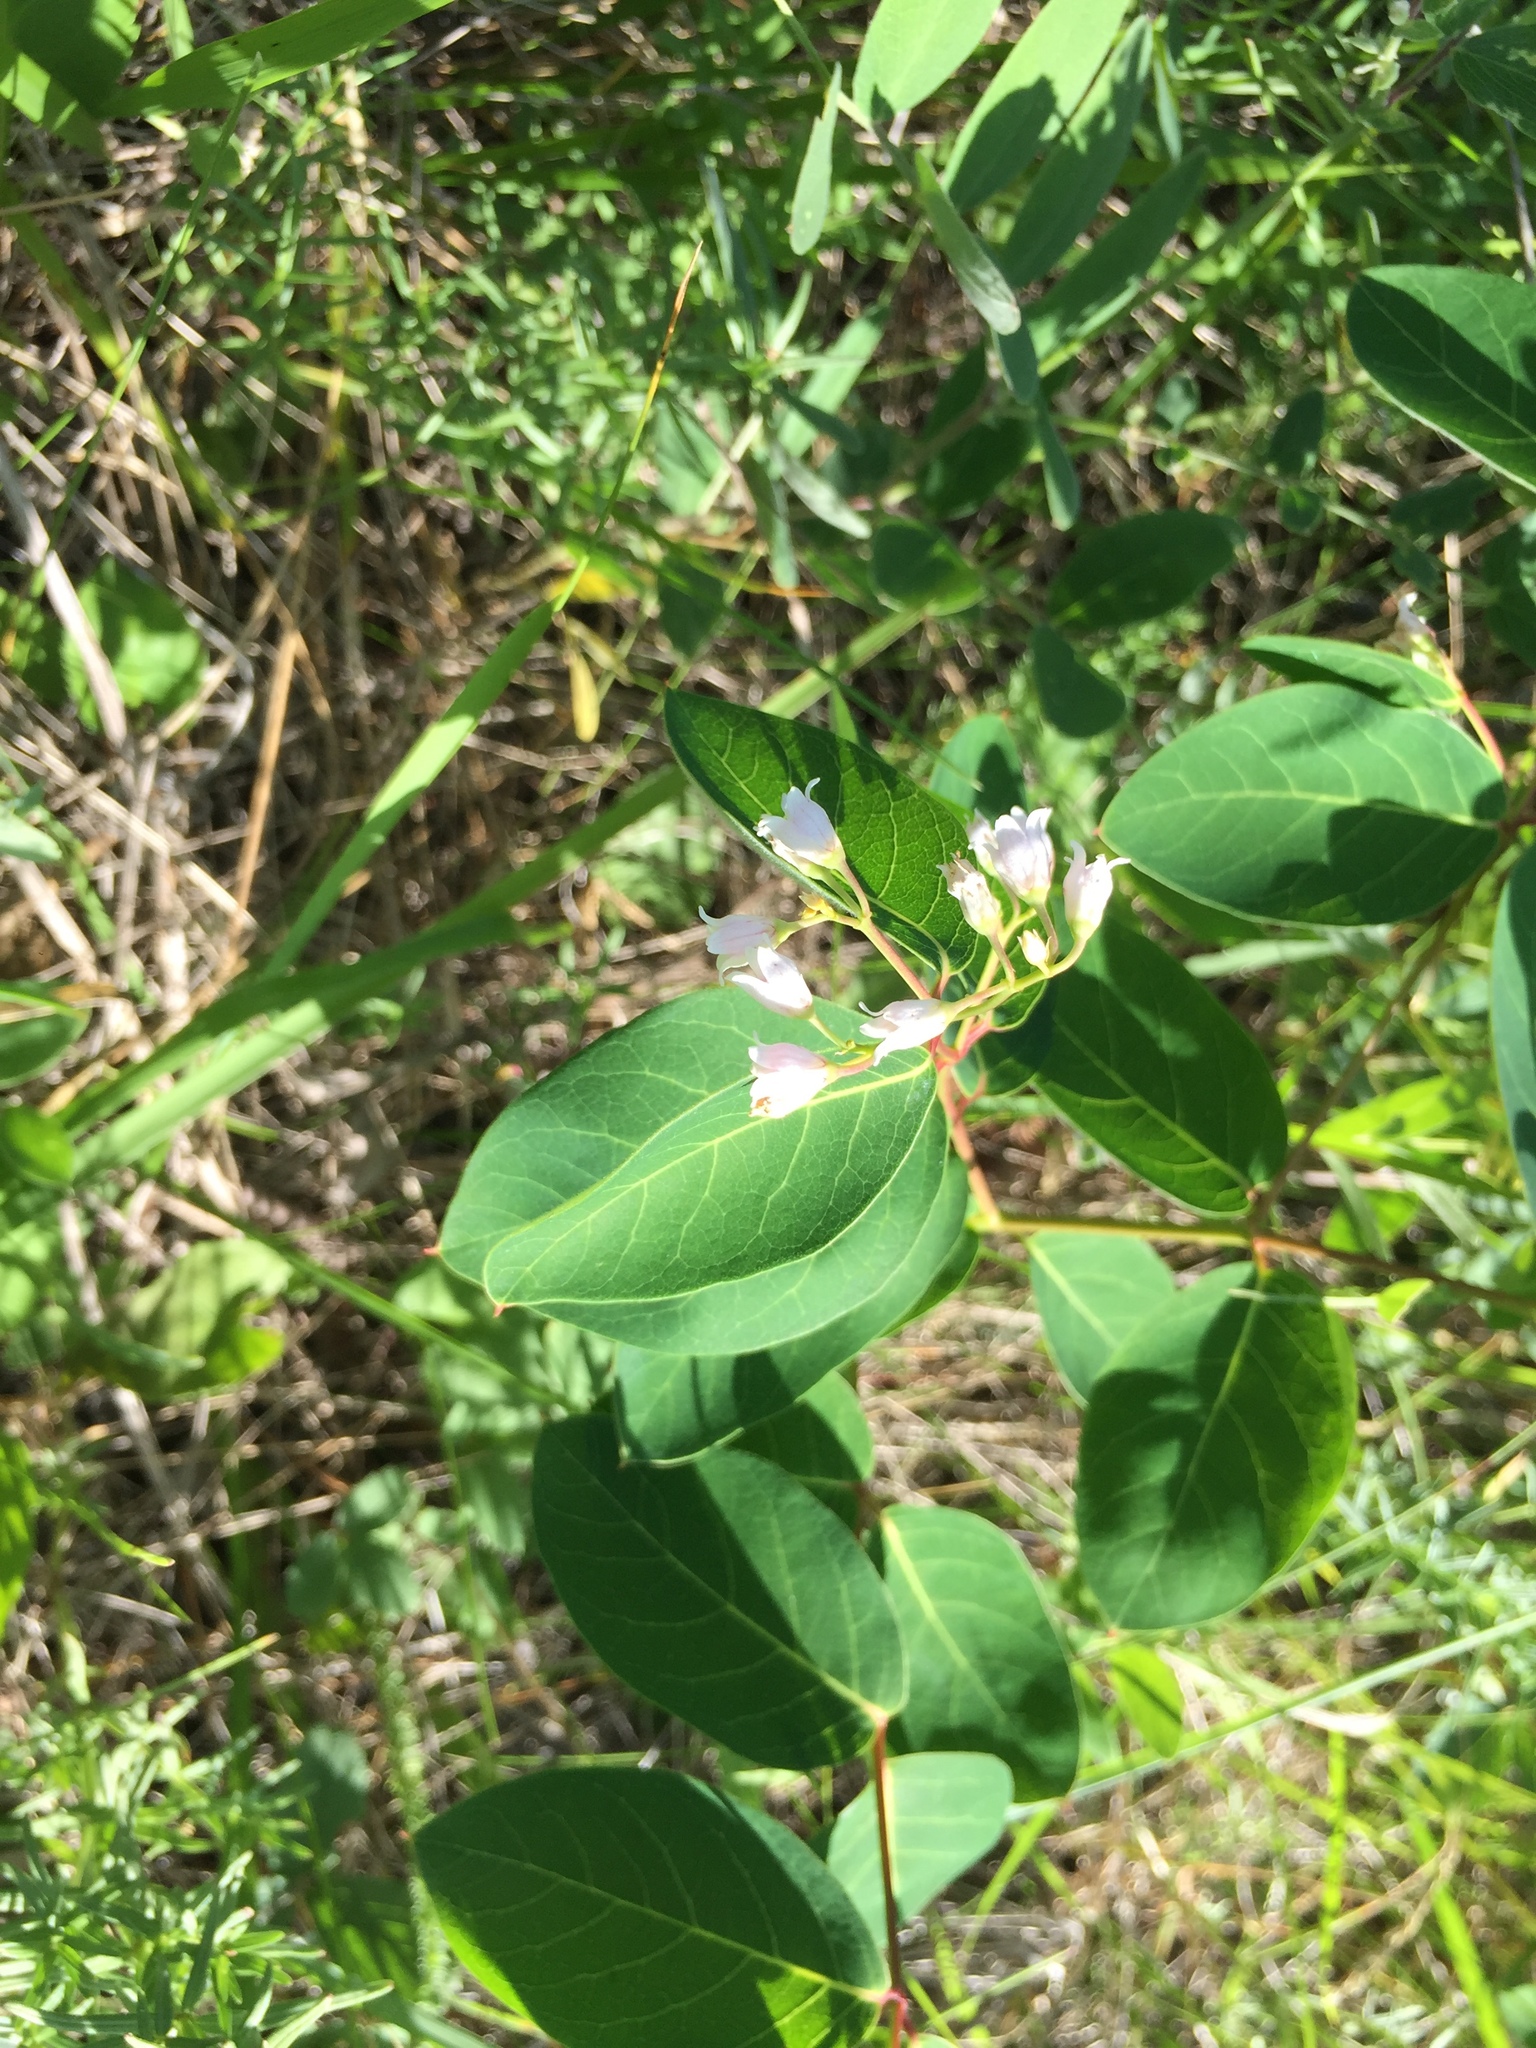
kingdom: Plantae
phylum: Tracheophyta
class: Magnoliopsida
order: Gentianales
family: Apocynaceae
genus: Apocynum
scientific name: Apocynum androsaemifolium
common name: Spreading dogbane
